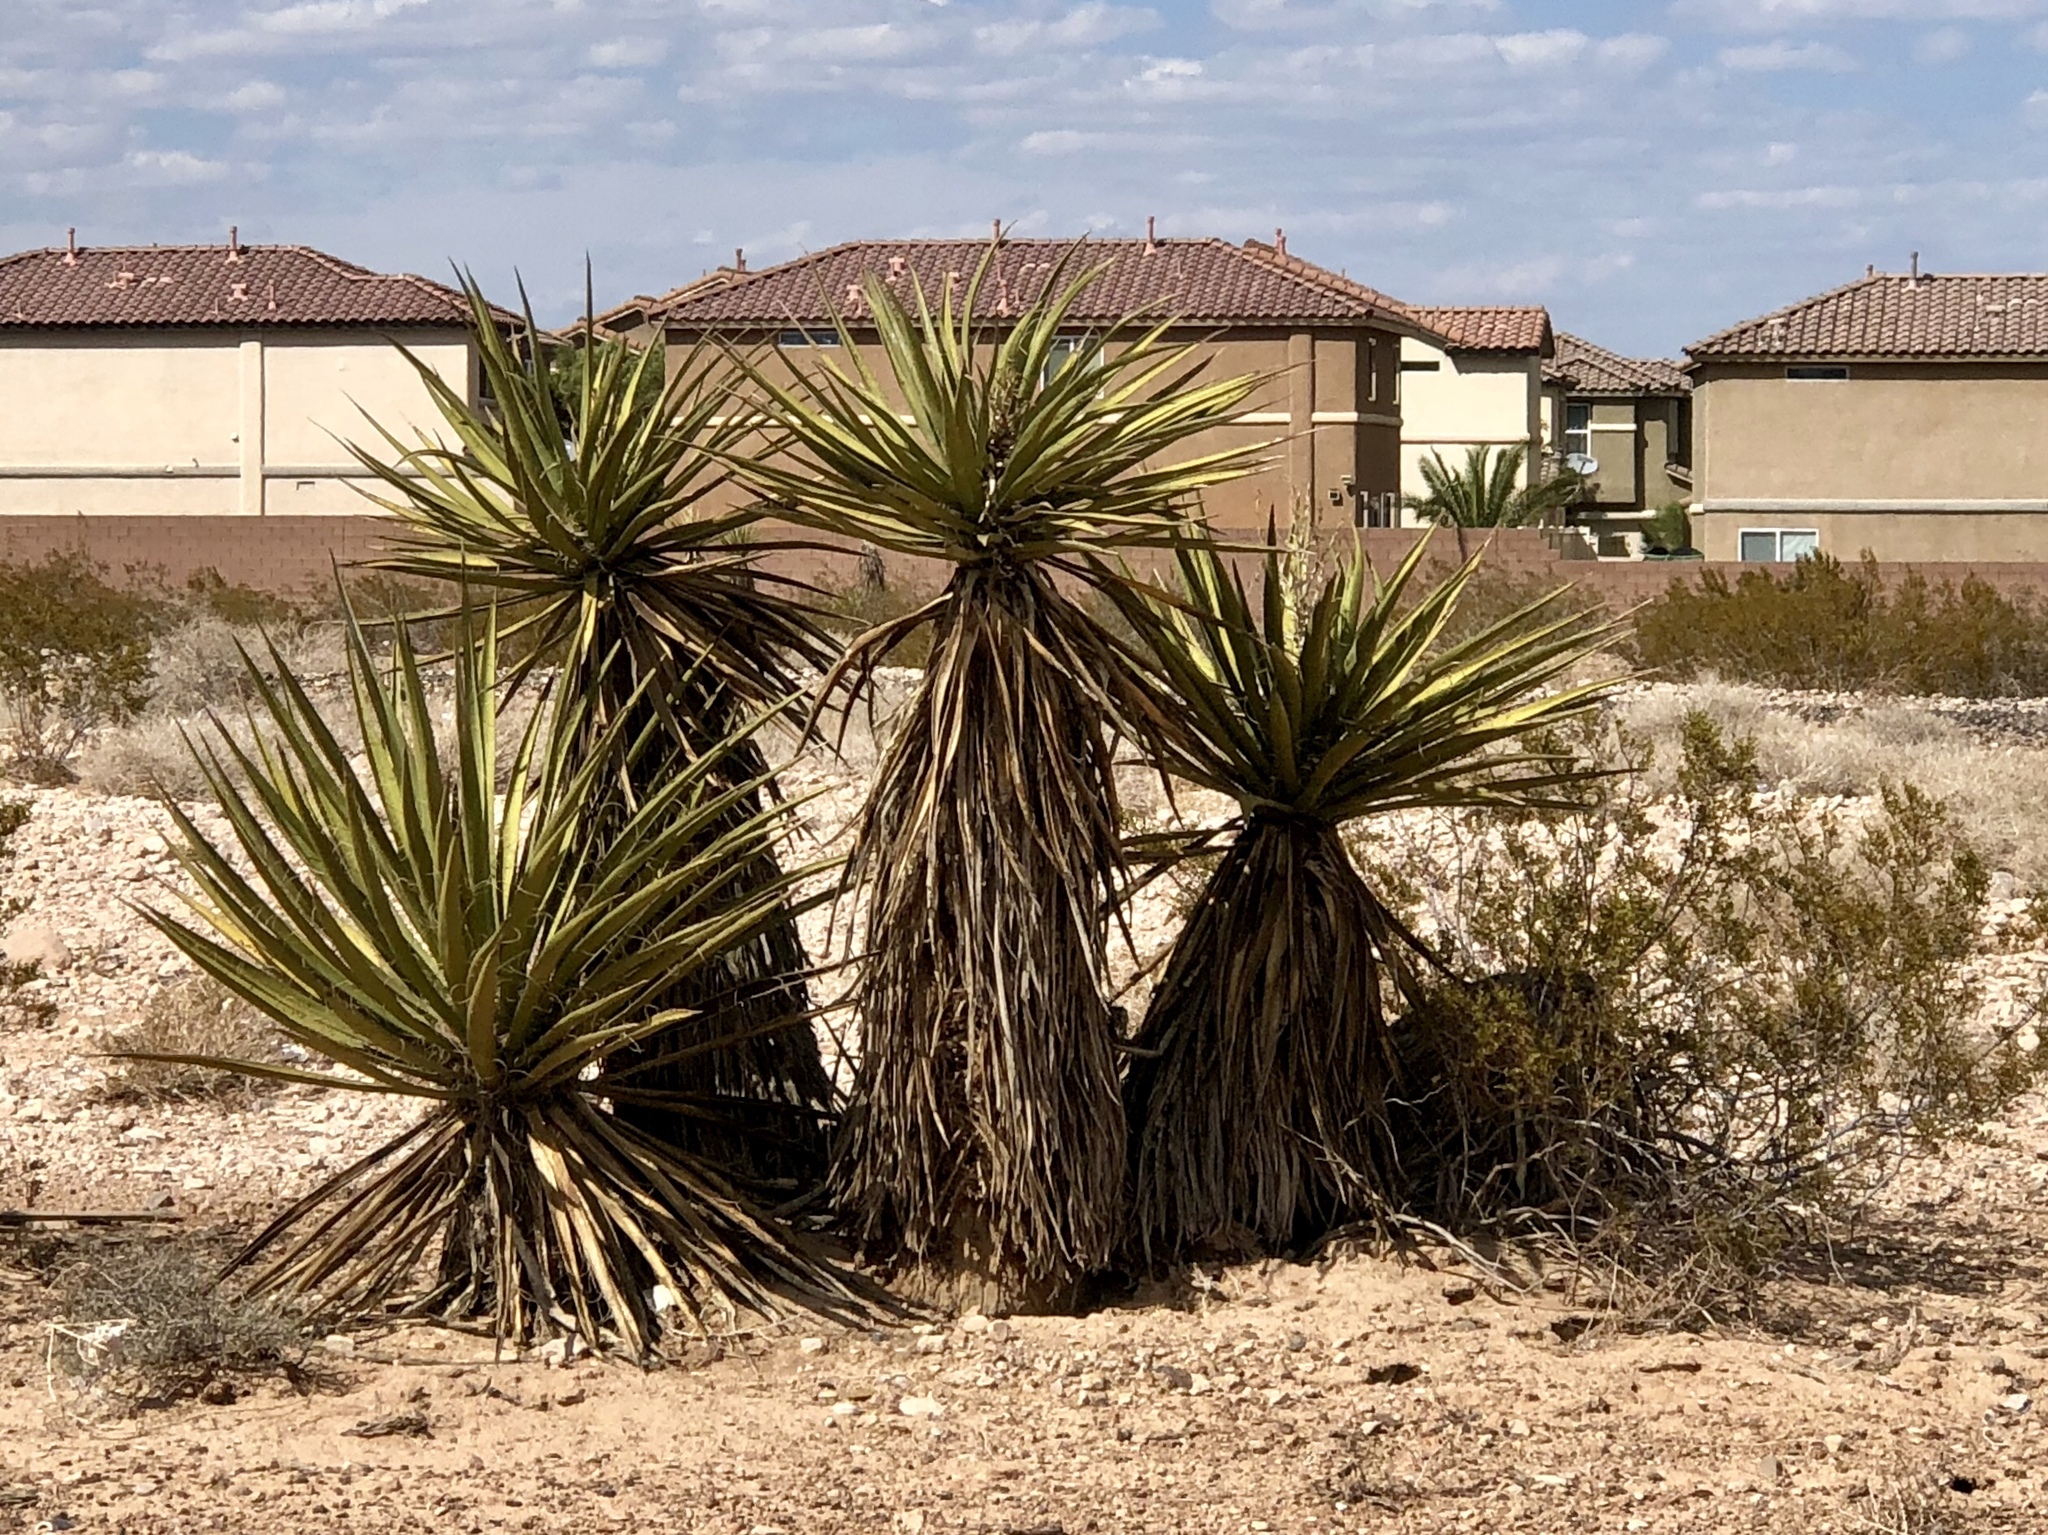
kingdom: Plantae
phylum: Tracheophyta
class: Liliopsida
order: Asparagales
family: Asparagaceae
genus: Yucca
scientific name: Yucca schidigera
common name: Mojave yucca
